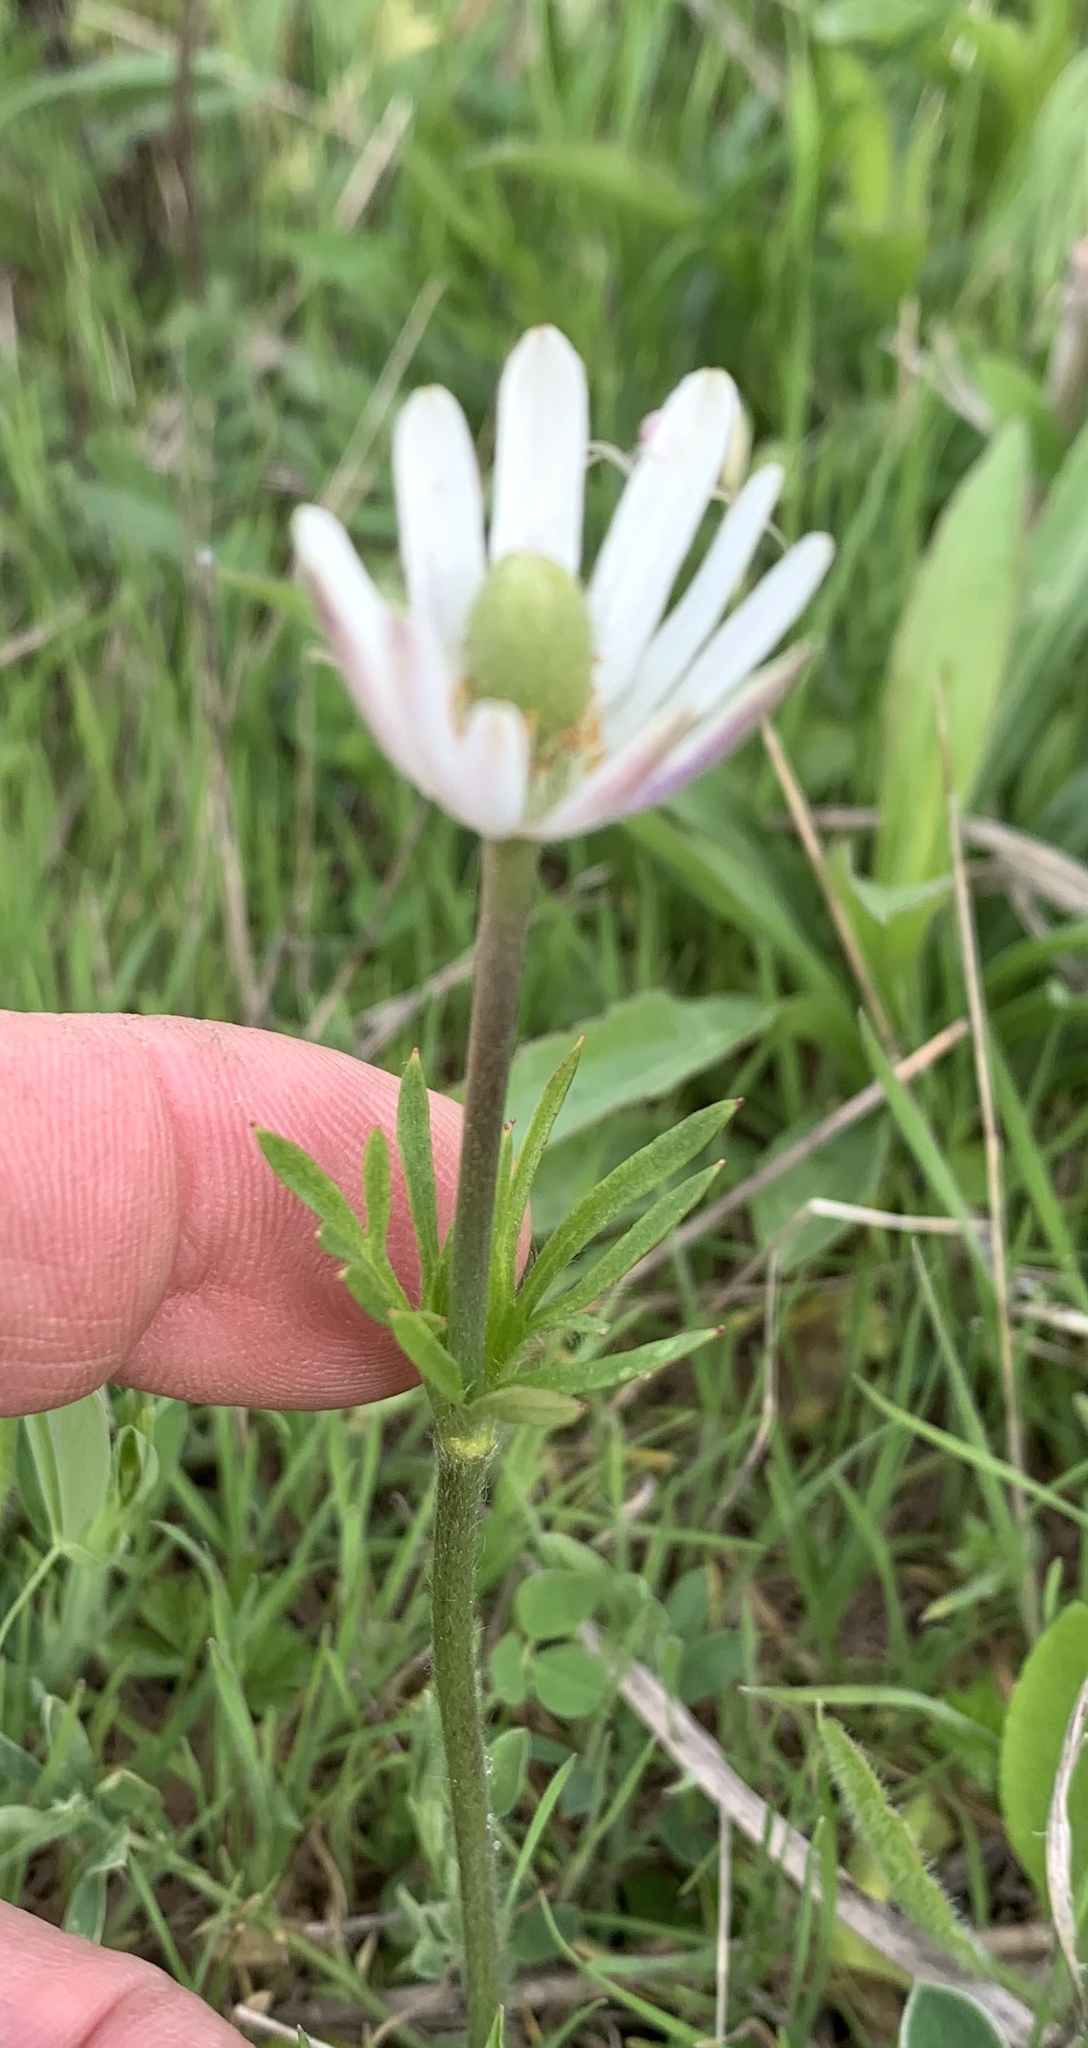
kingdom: Plantae
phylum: Tracheophyta
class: Magnoliopsida
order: Ranunculales
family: Ranunculaceae
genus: Anemone
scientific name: Anemone berlandieri
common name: Ten-petal anemone
